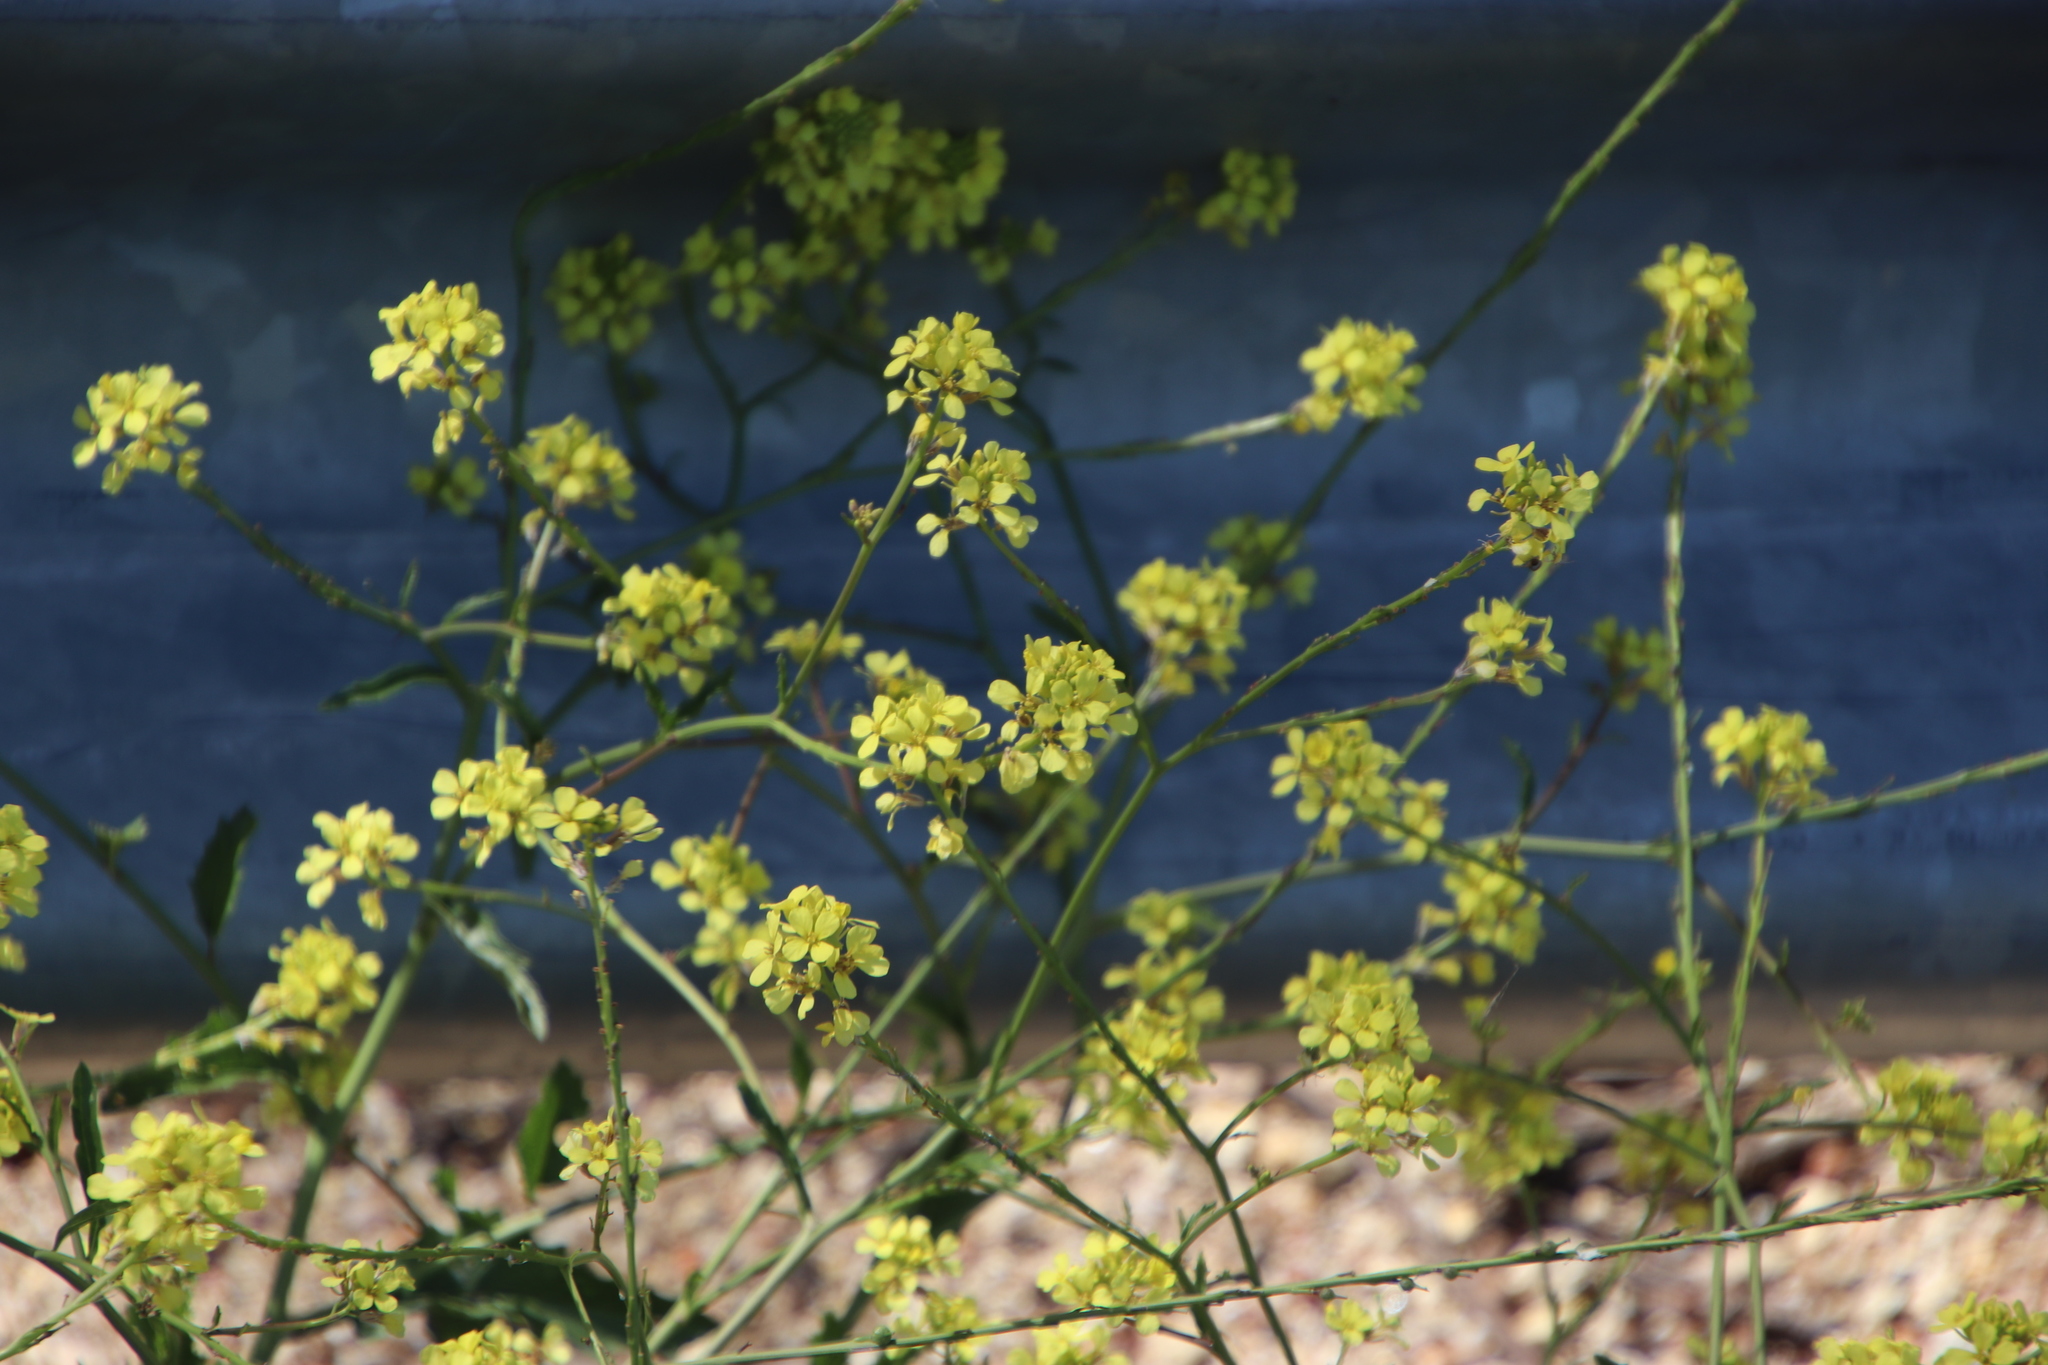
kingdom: Plantae
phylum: Tracheophyta
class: Magnoliopsida
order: Brassicales
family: Brassicaceae
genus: Rapistrum
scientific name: Rapistrum rugosum
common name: Annual bastardcabbage
